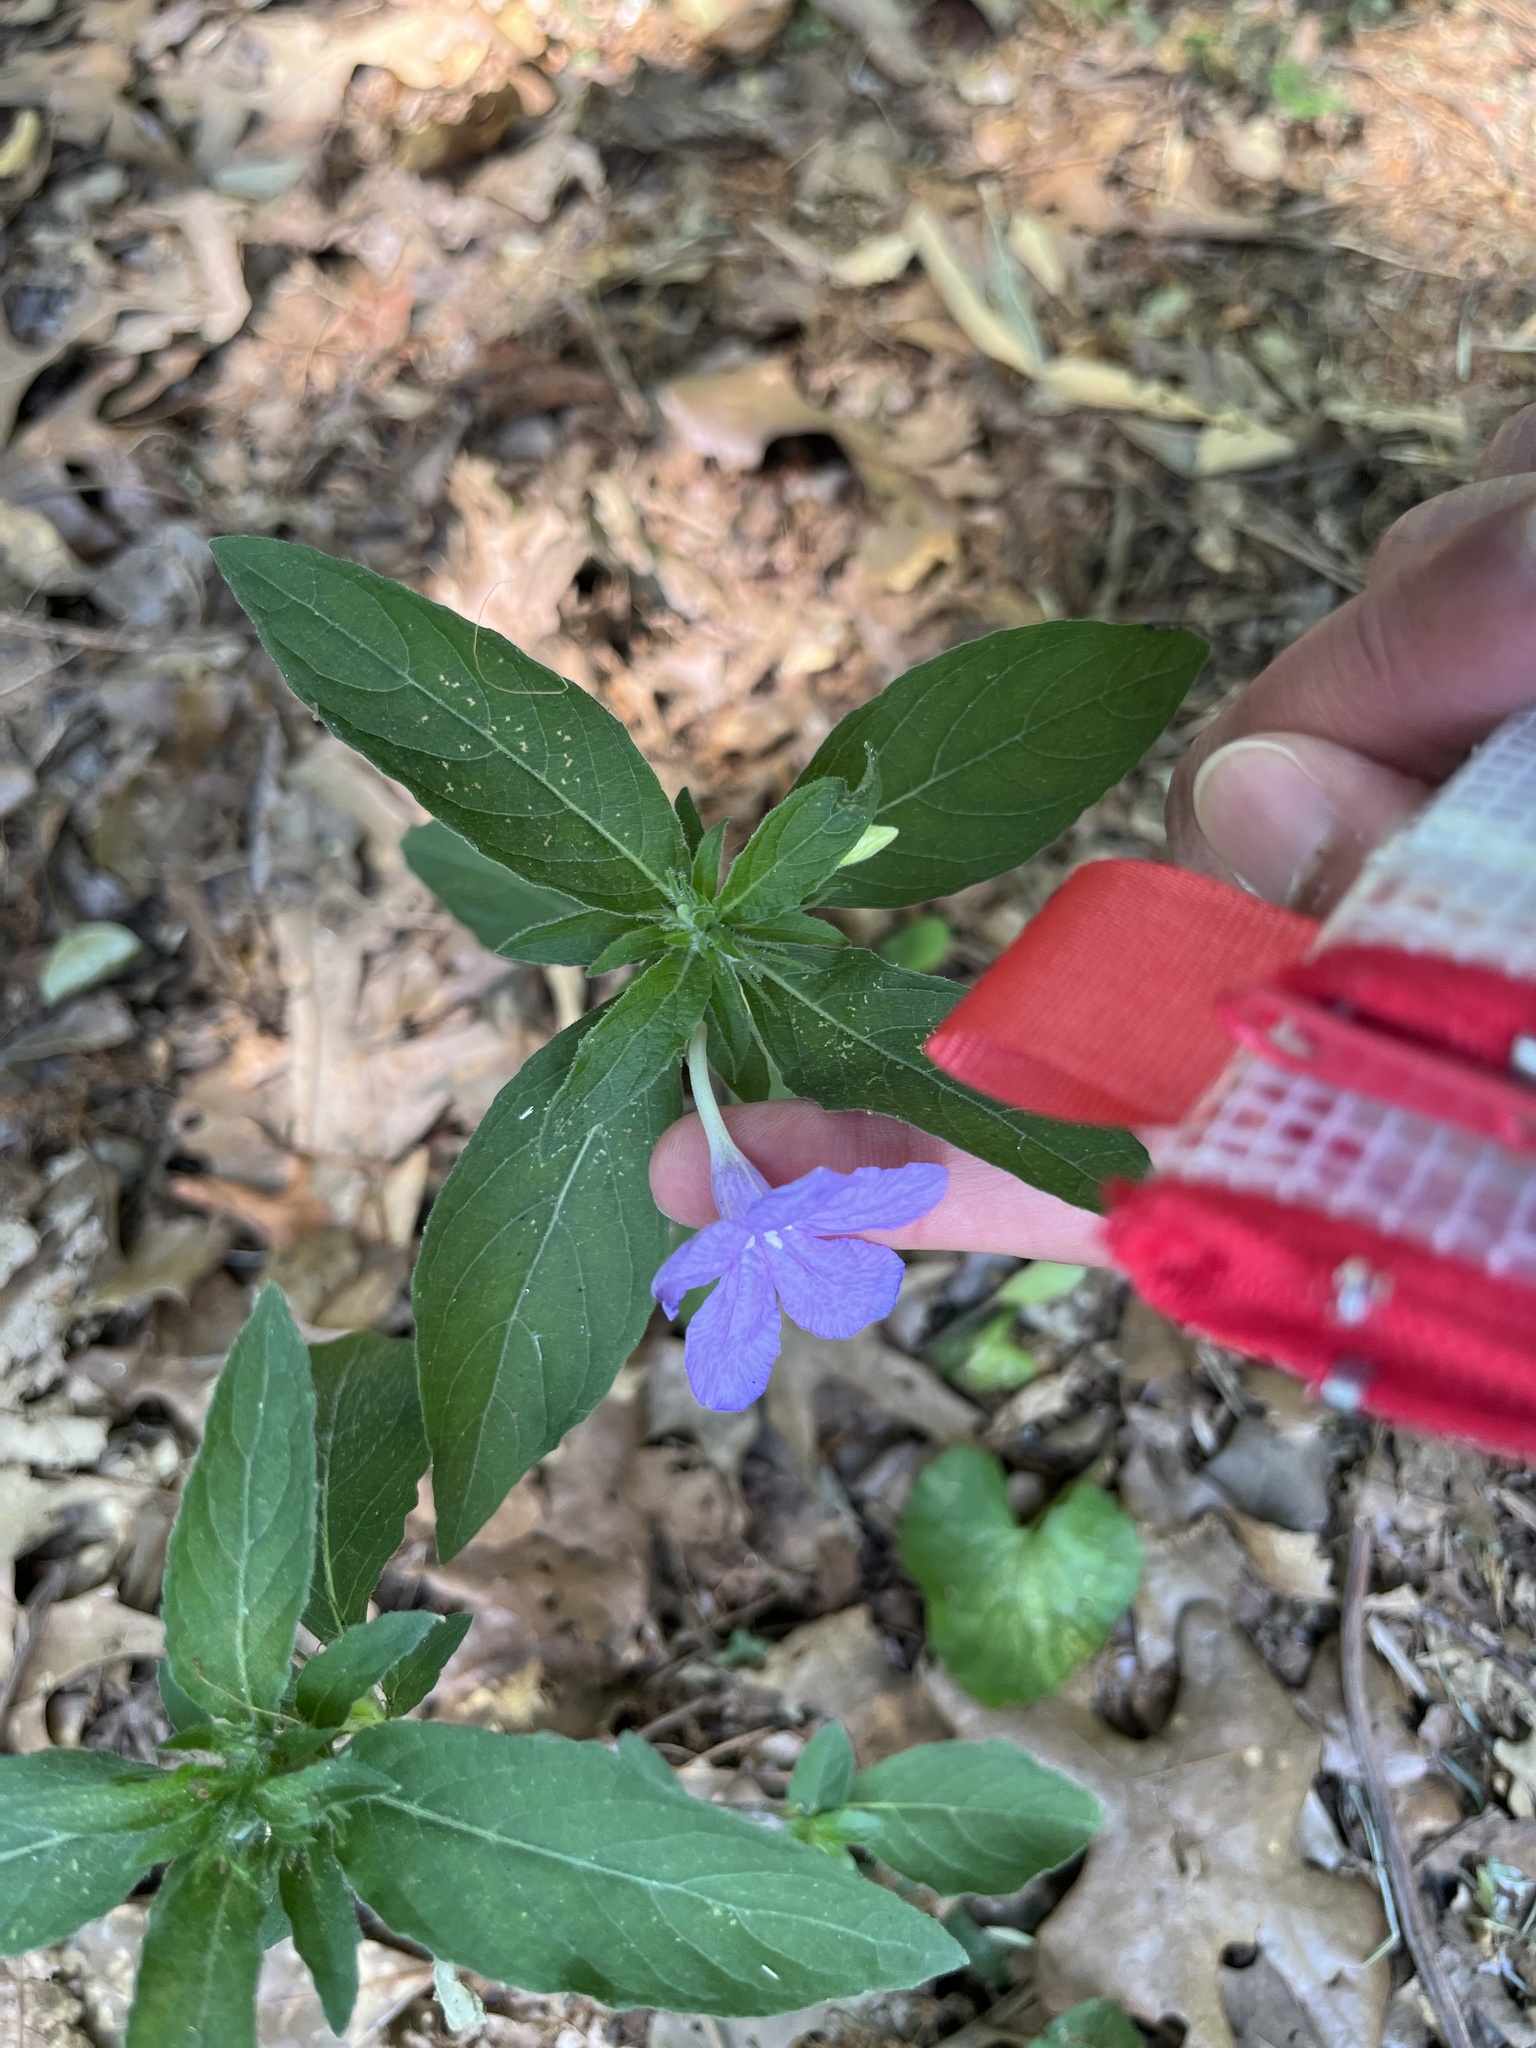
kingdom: Plantae
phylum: Tracheophyta
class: Magnoliopsida
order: Lamiales
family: Acanthaceae
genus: Ruellia
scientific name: Ruellia caroliniensis
